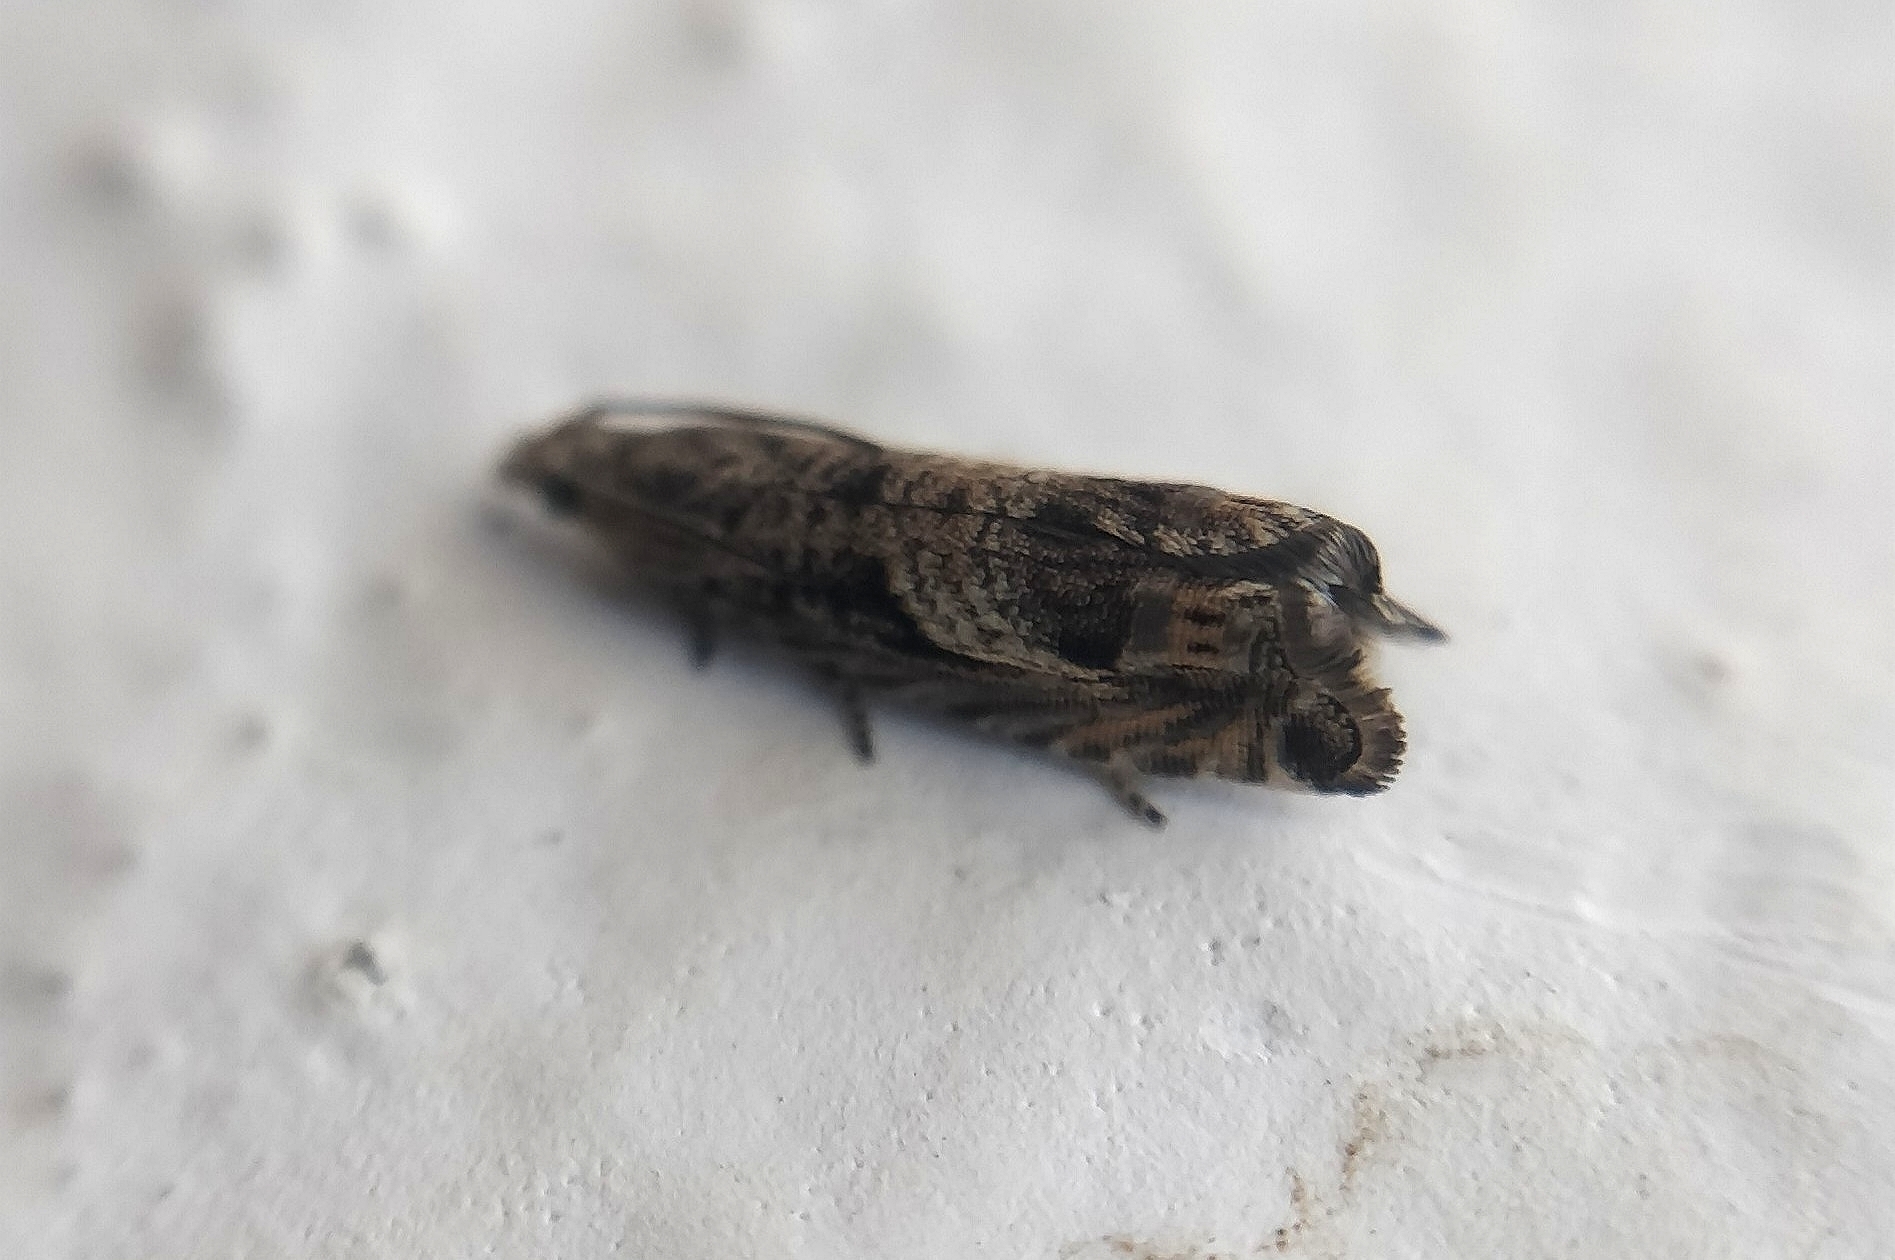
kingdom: Animalia
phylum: Arthropoda
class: Insecta
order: Lepidoptera
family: Tortricidae
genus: Selania
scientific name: Selania leplastriana
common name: Cabbage piercer
